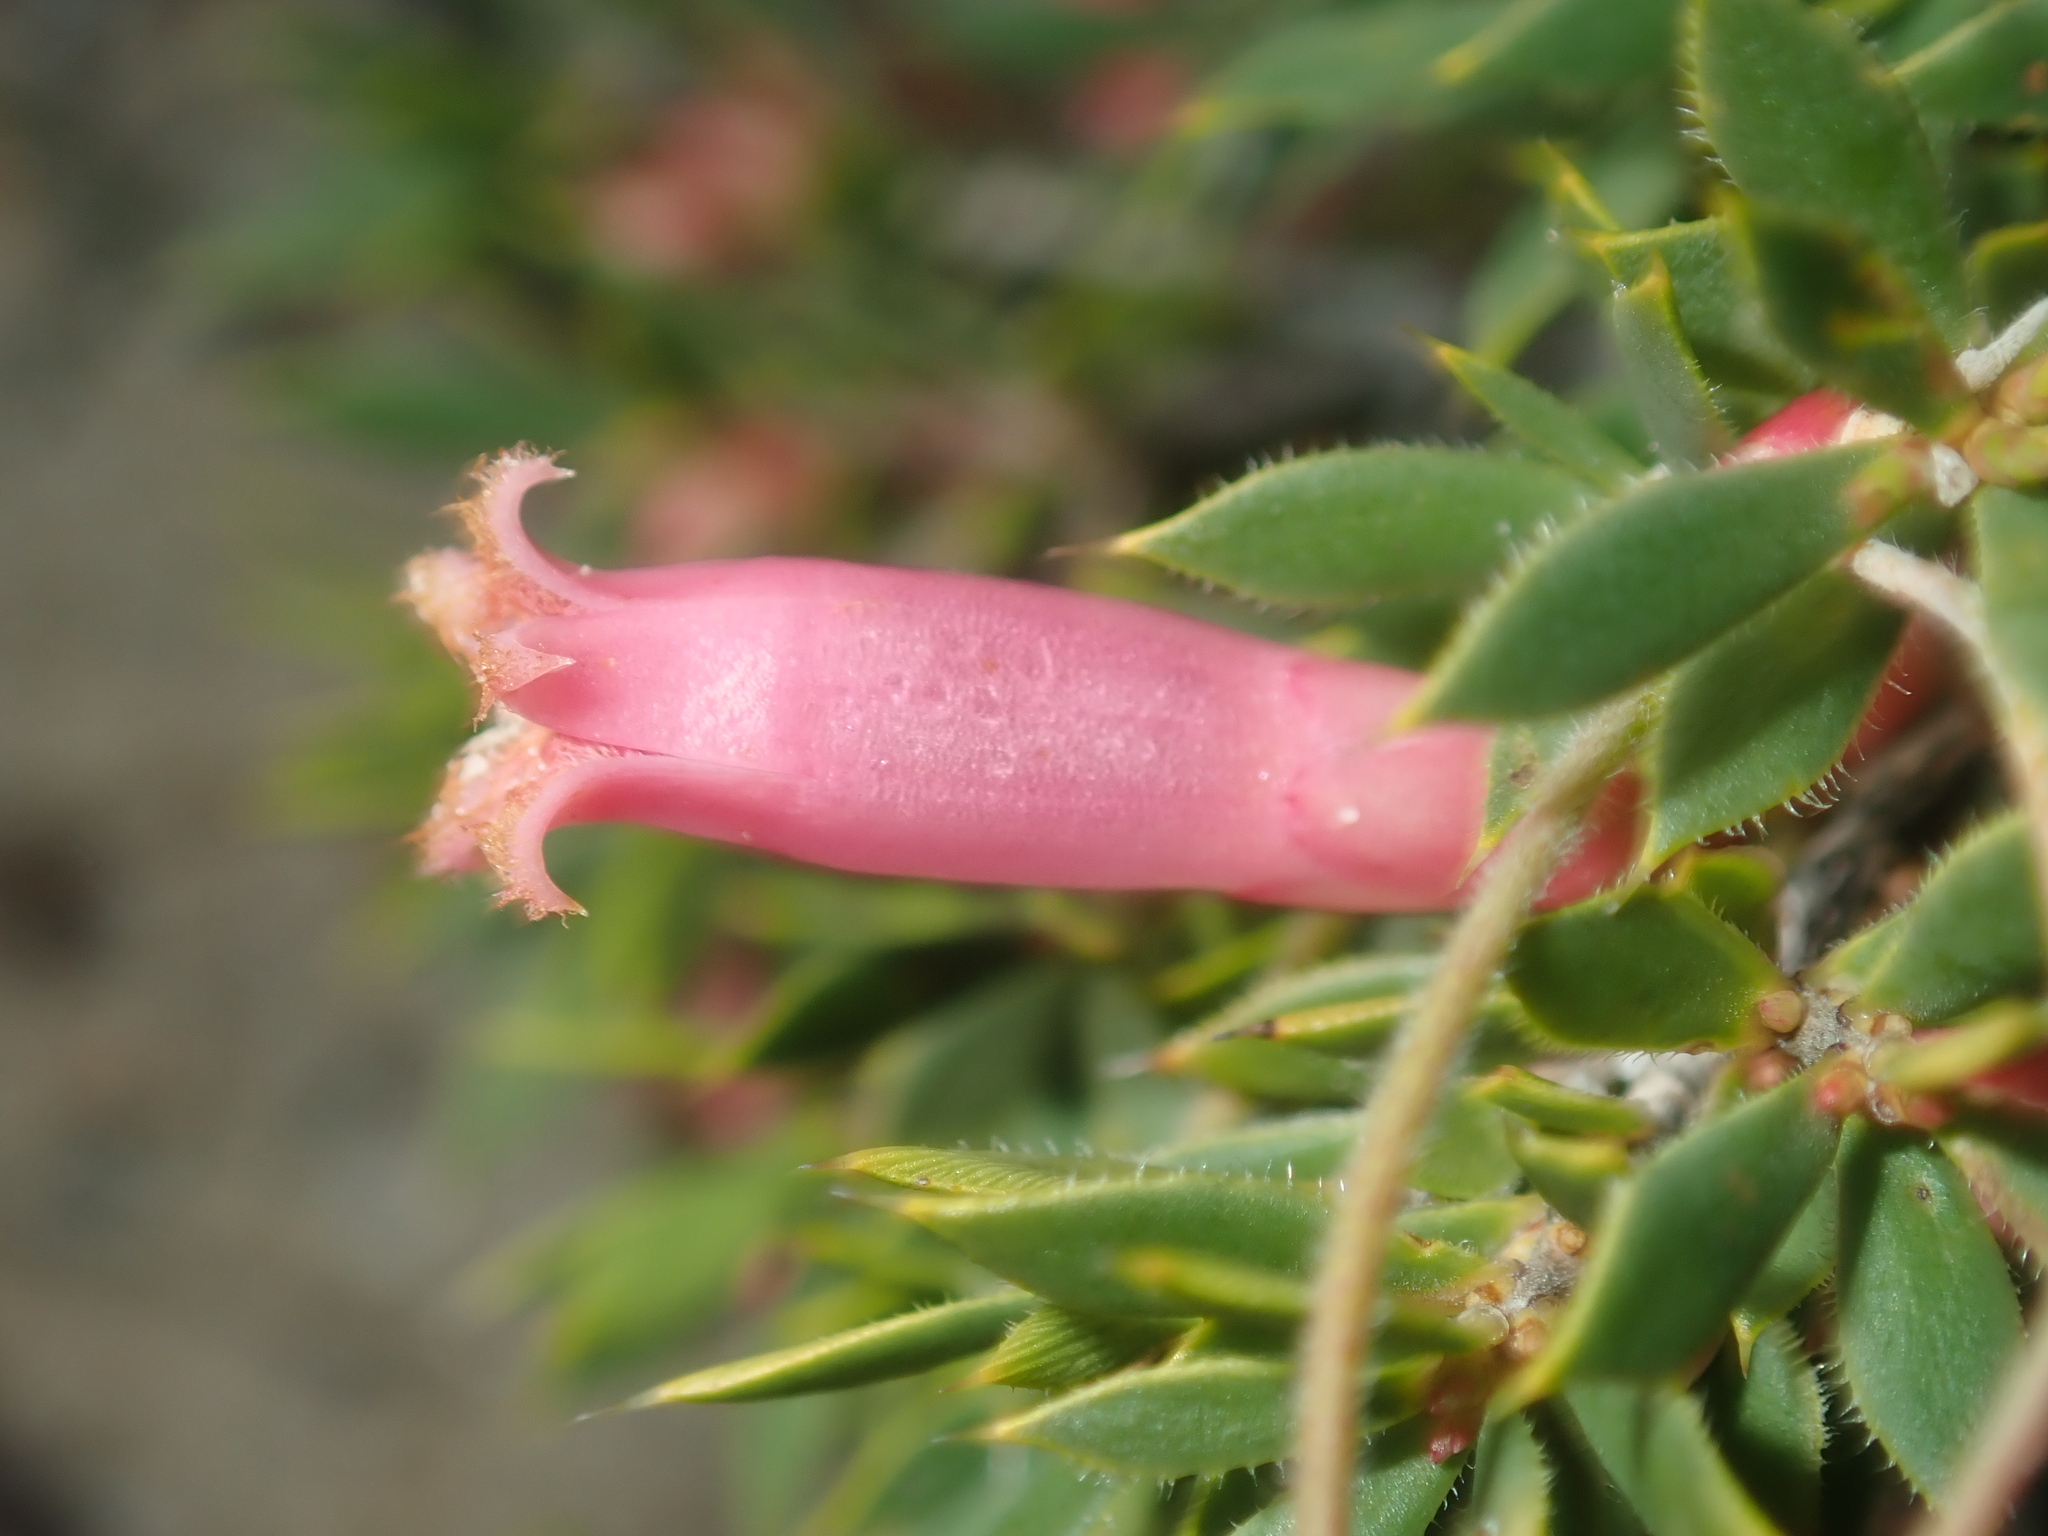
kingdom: Plantae
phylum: Tracheophyta
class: Magnoliopsida
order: Ericales
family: Ericaceae
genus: Styphelia
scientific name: Styphelia microdonta
